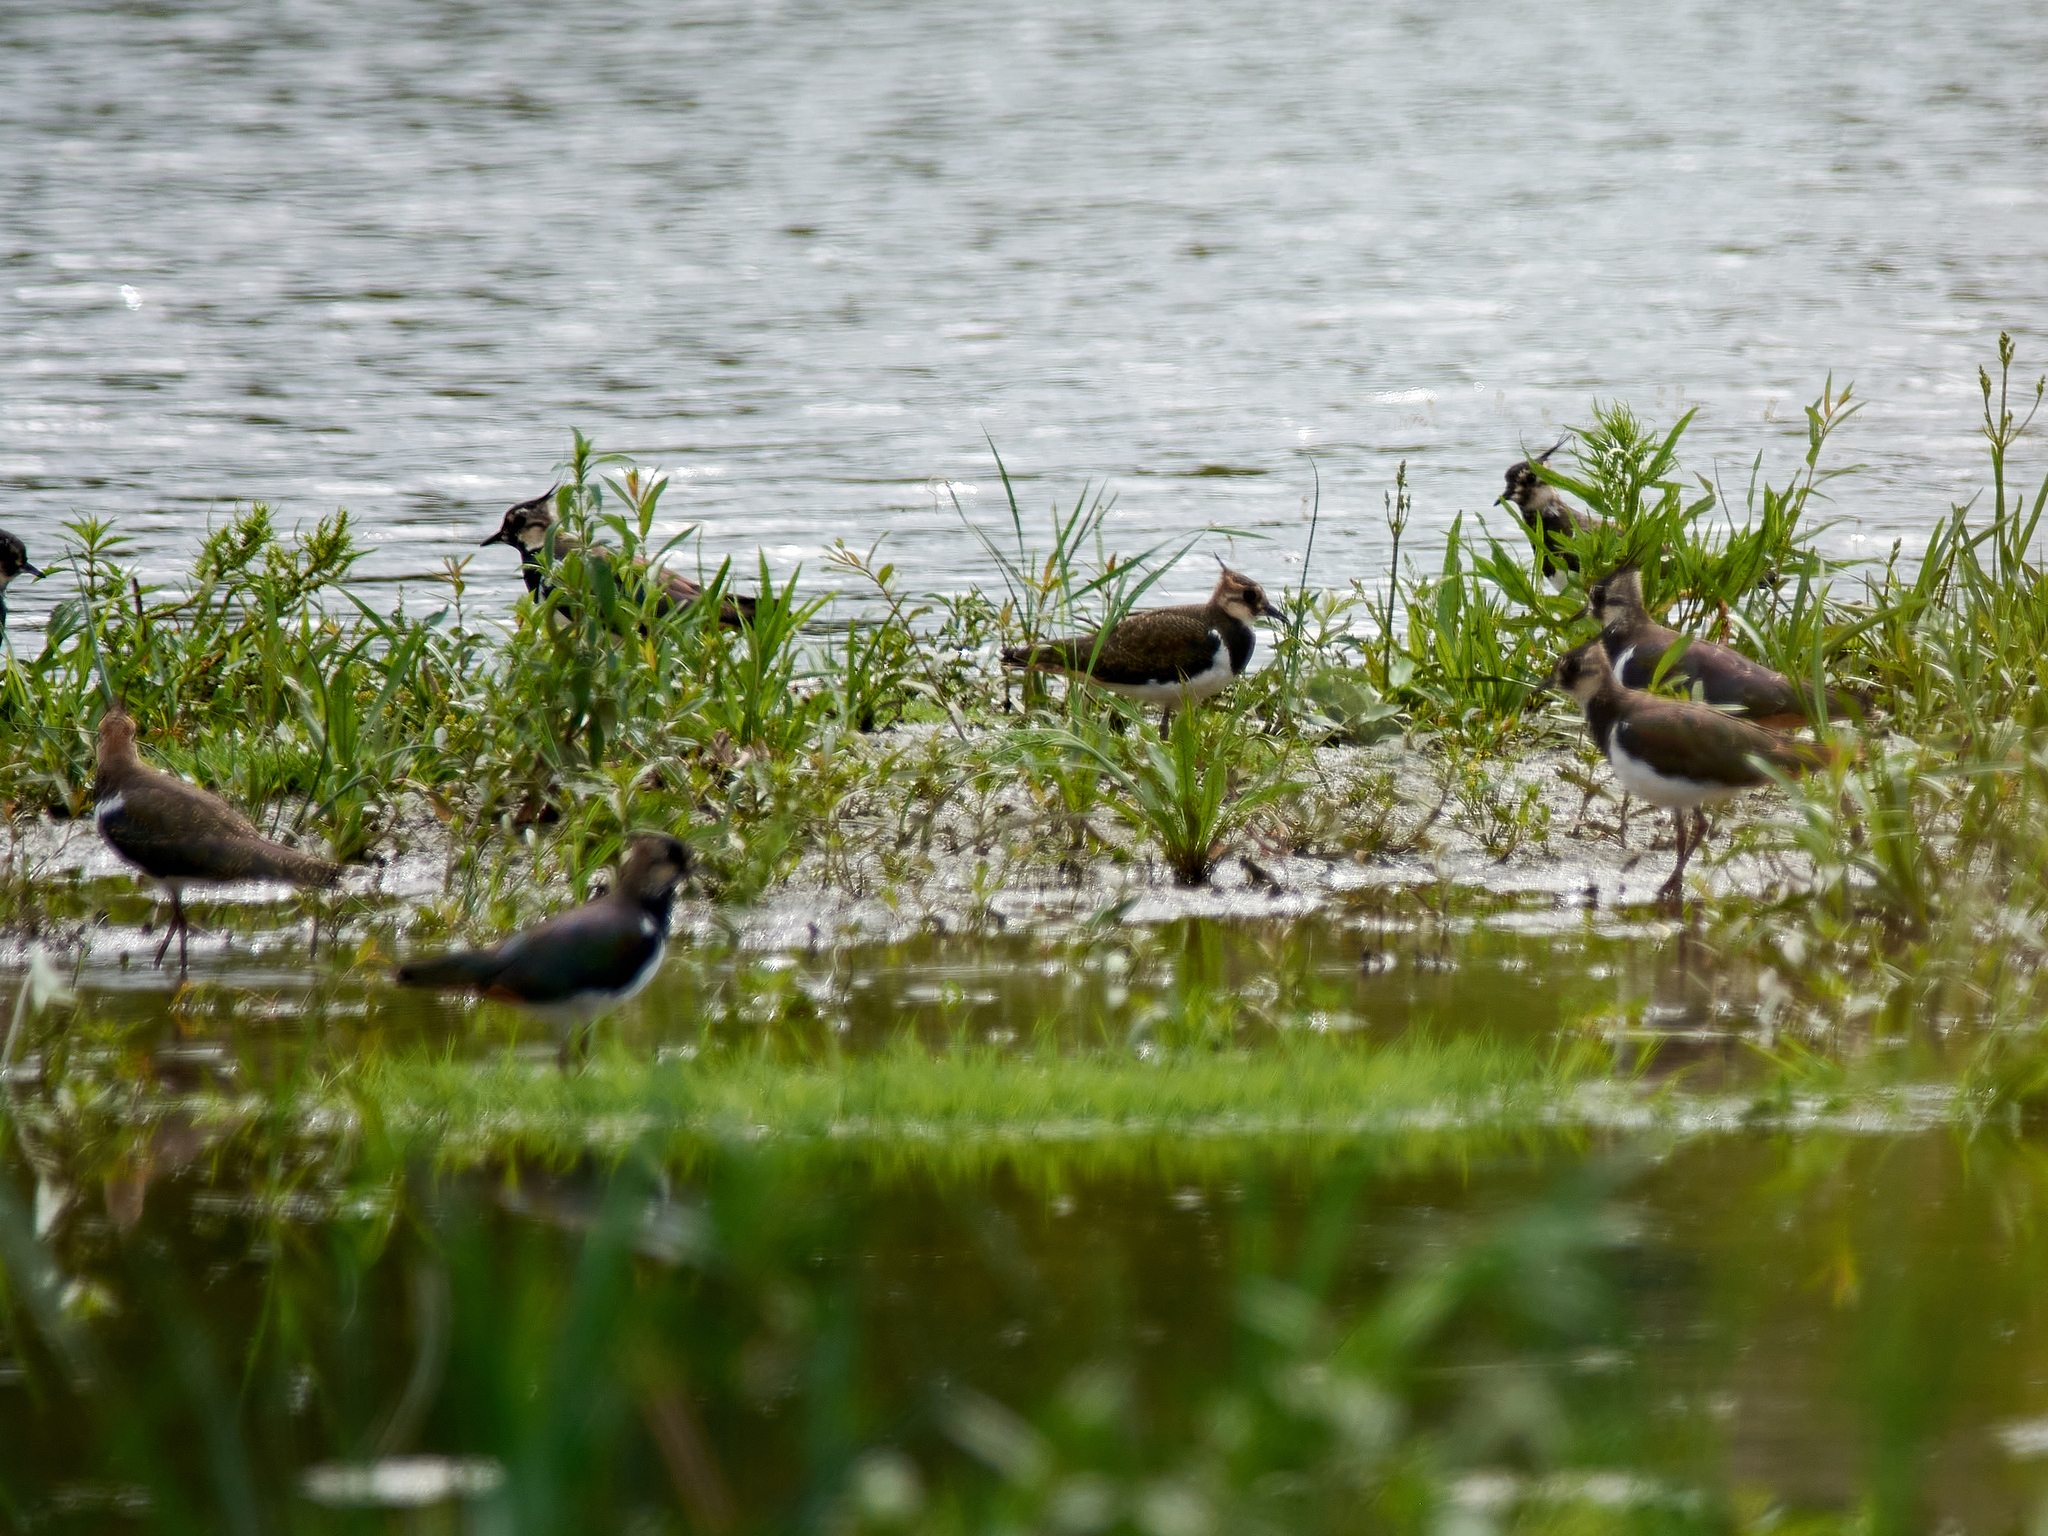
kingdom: Animalia
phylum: Chordata
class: Aves
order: Charadriiformes
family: Charadriidae
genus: Vanellus
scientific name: Vanellus vanellus
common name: Northern lapwing
